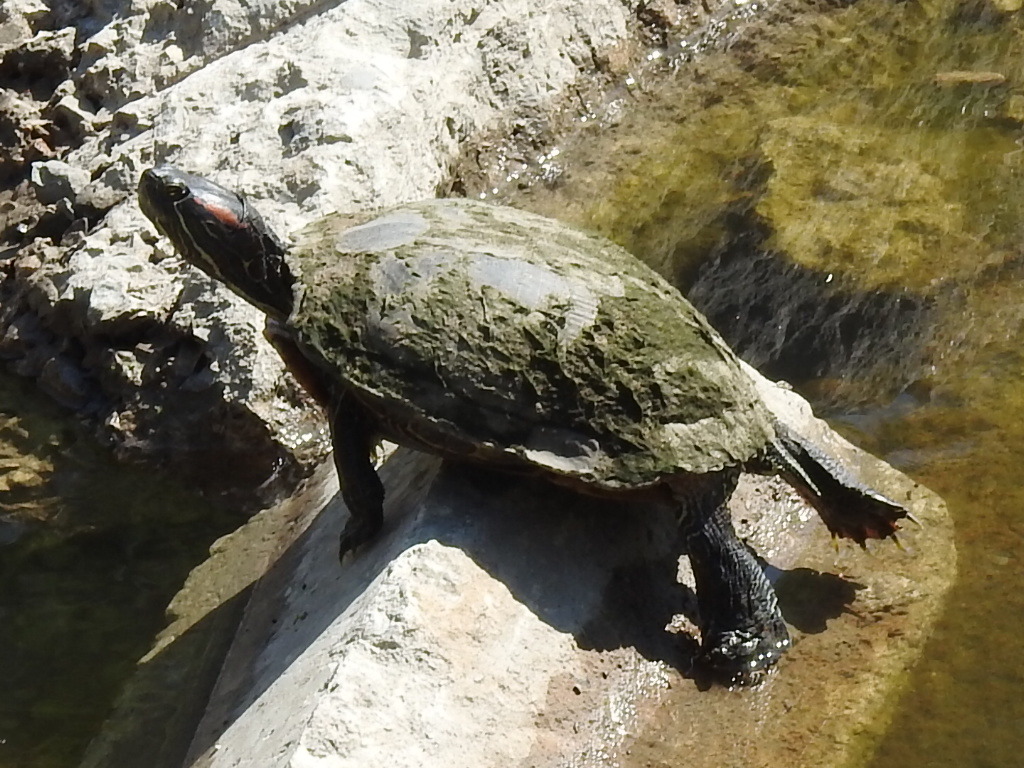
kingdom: Animalia
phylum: Chordata
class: Testudines
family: Emydidae
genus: Trachemys
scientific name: Trachemys scripta
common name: Slider
